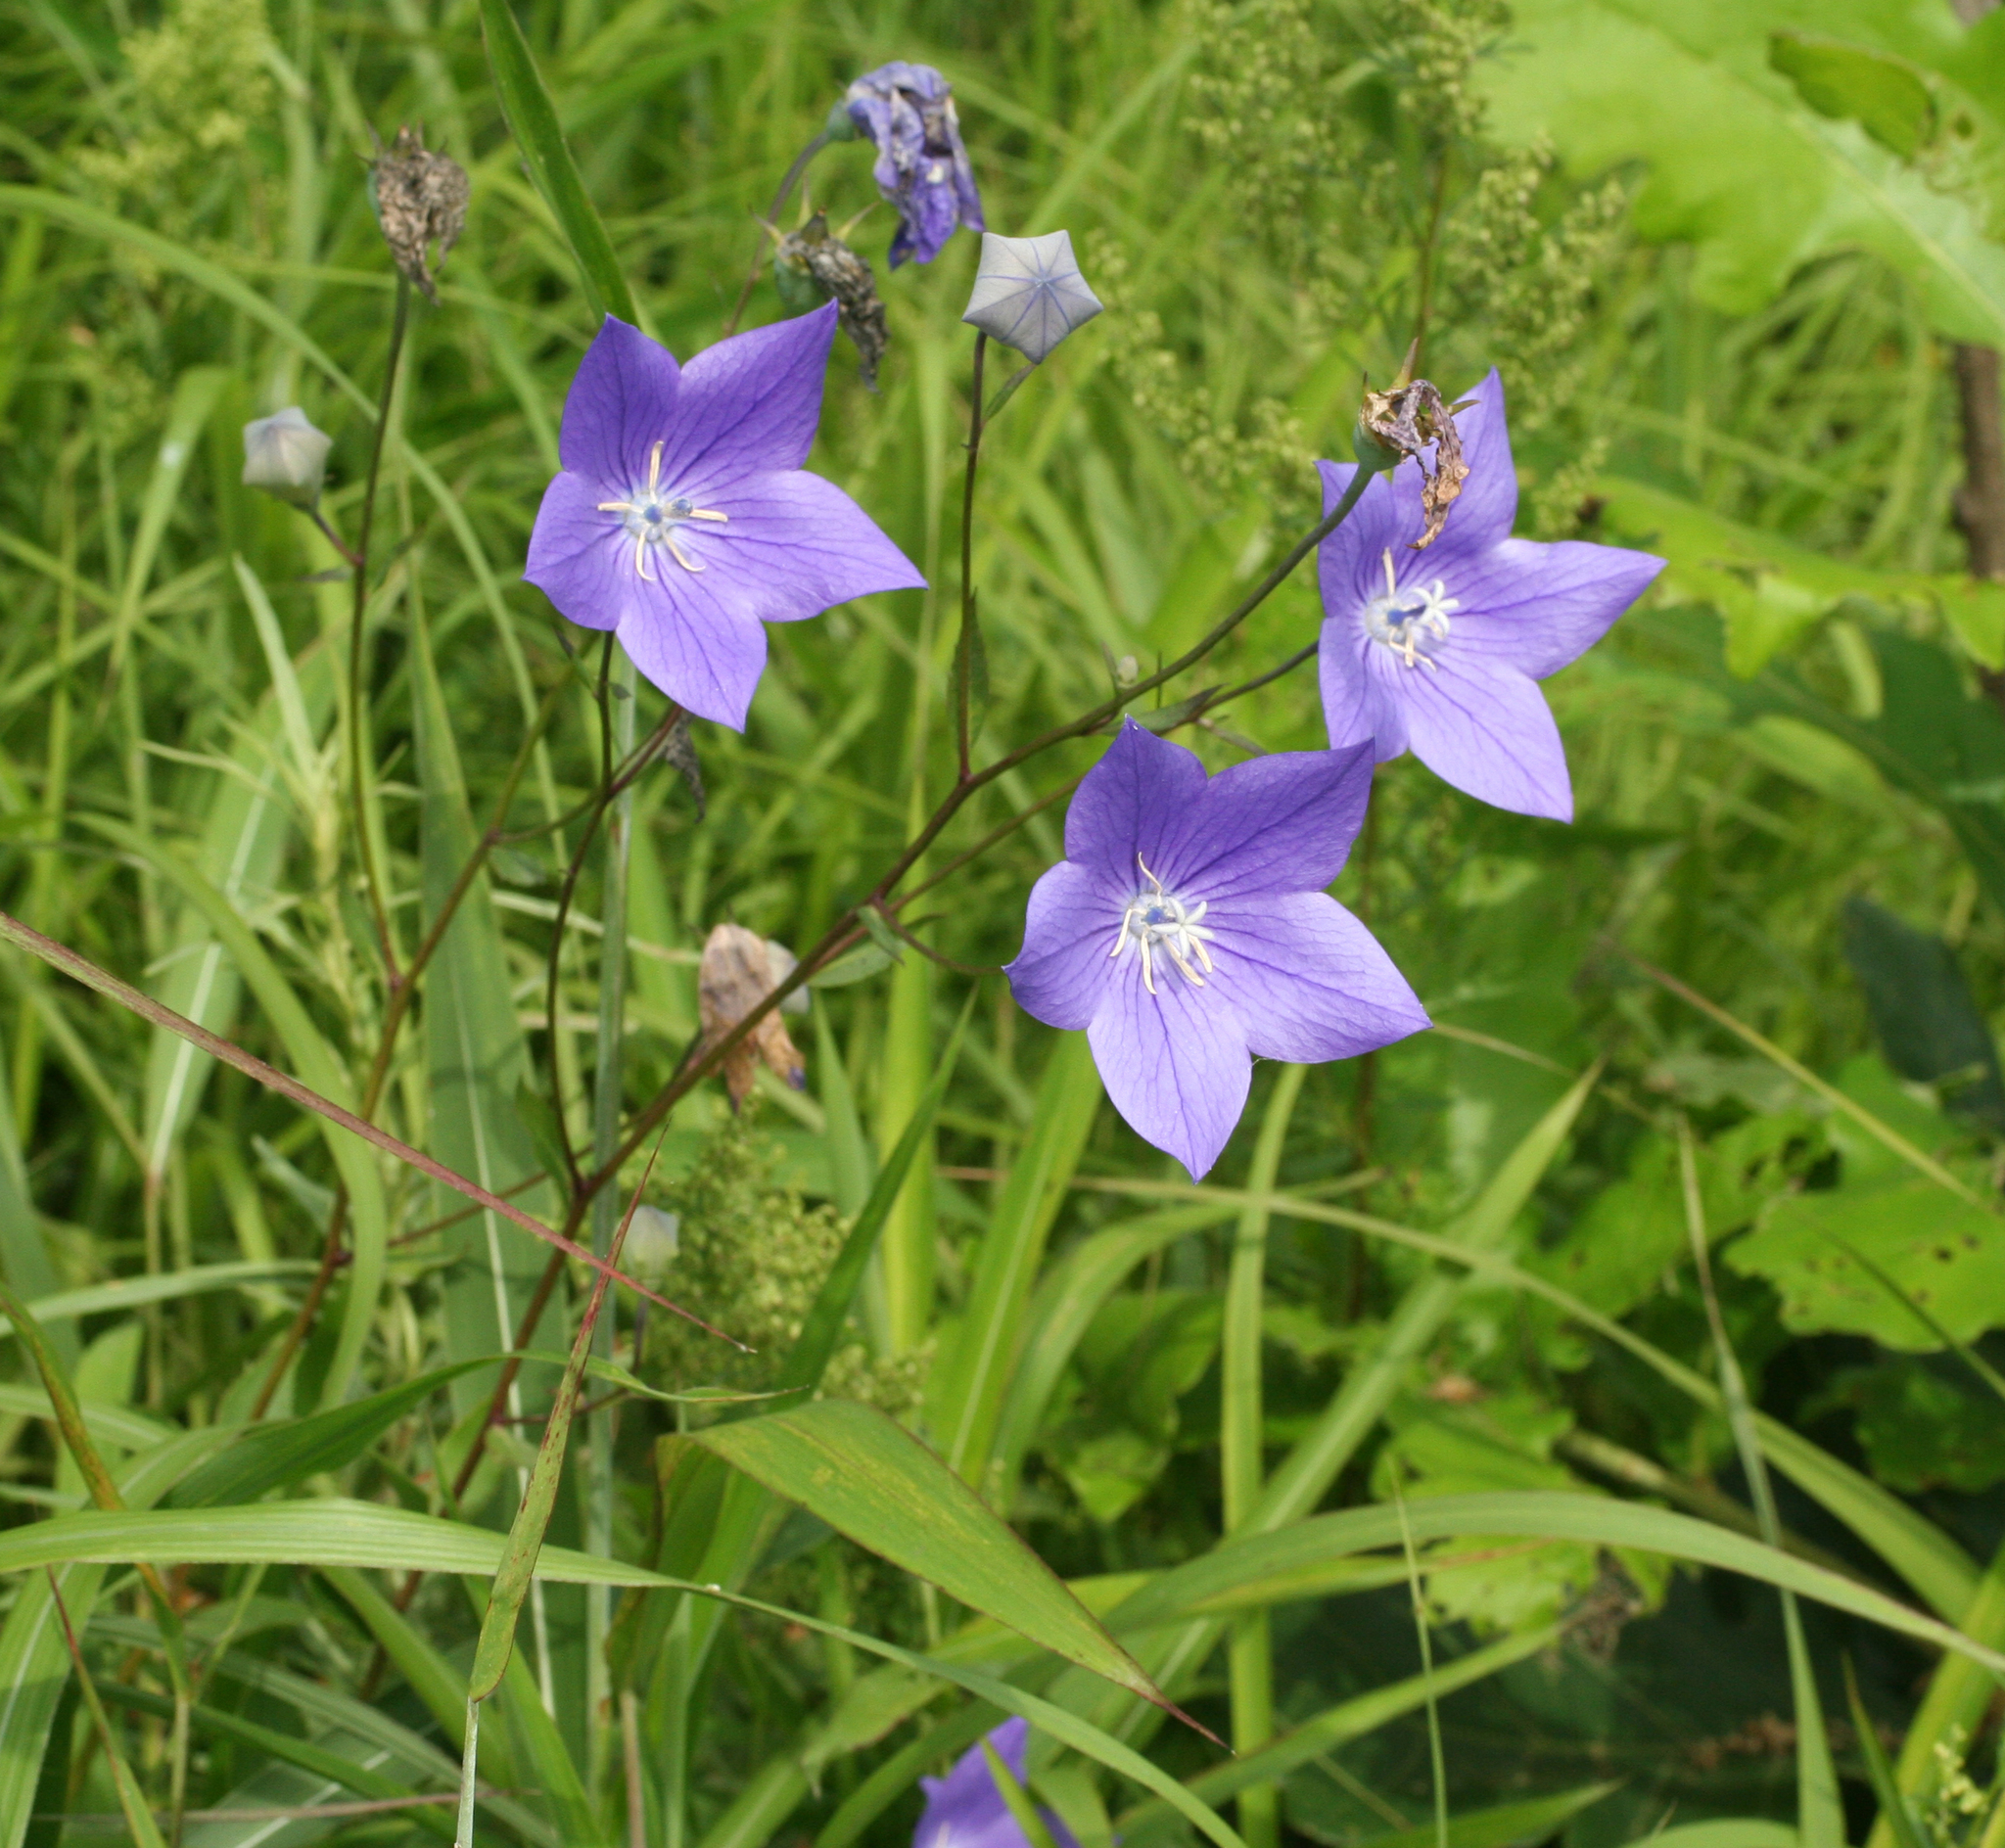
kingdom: Plantae
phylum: Tracheophyta
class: Magnoliopsida
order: Asterales
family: Campanulaceae
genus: Platycodon
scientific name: Platycodon grandiflorus
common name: Balloon-flower
